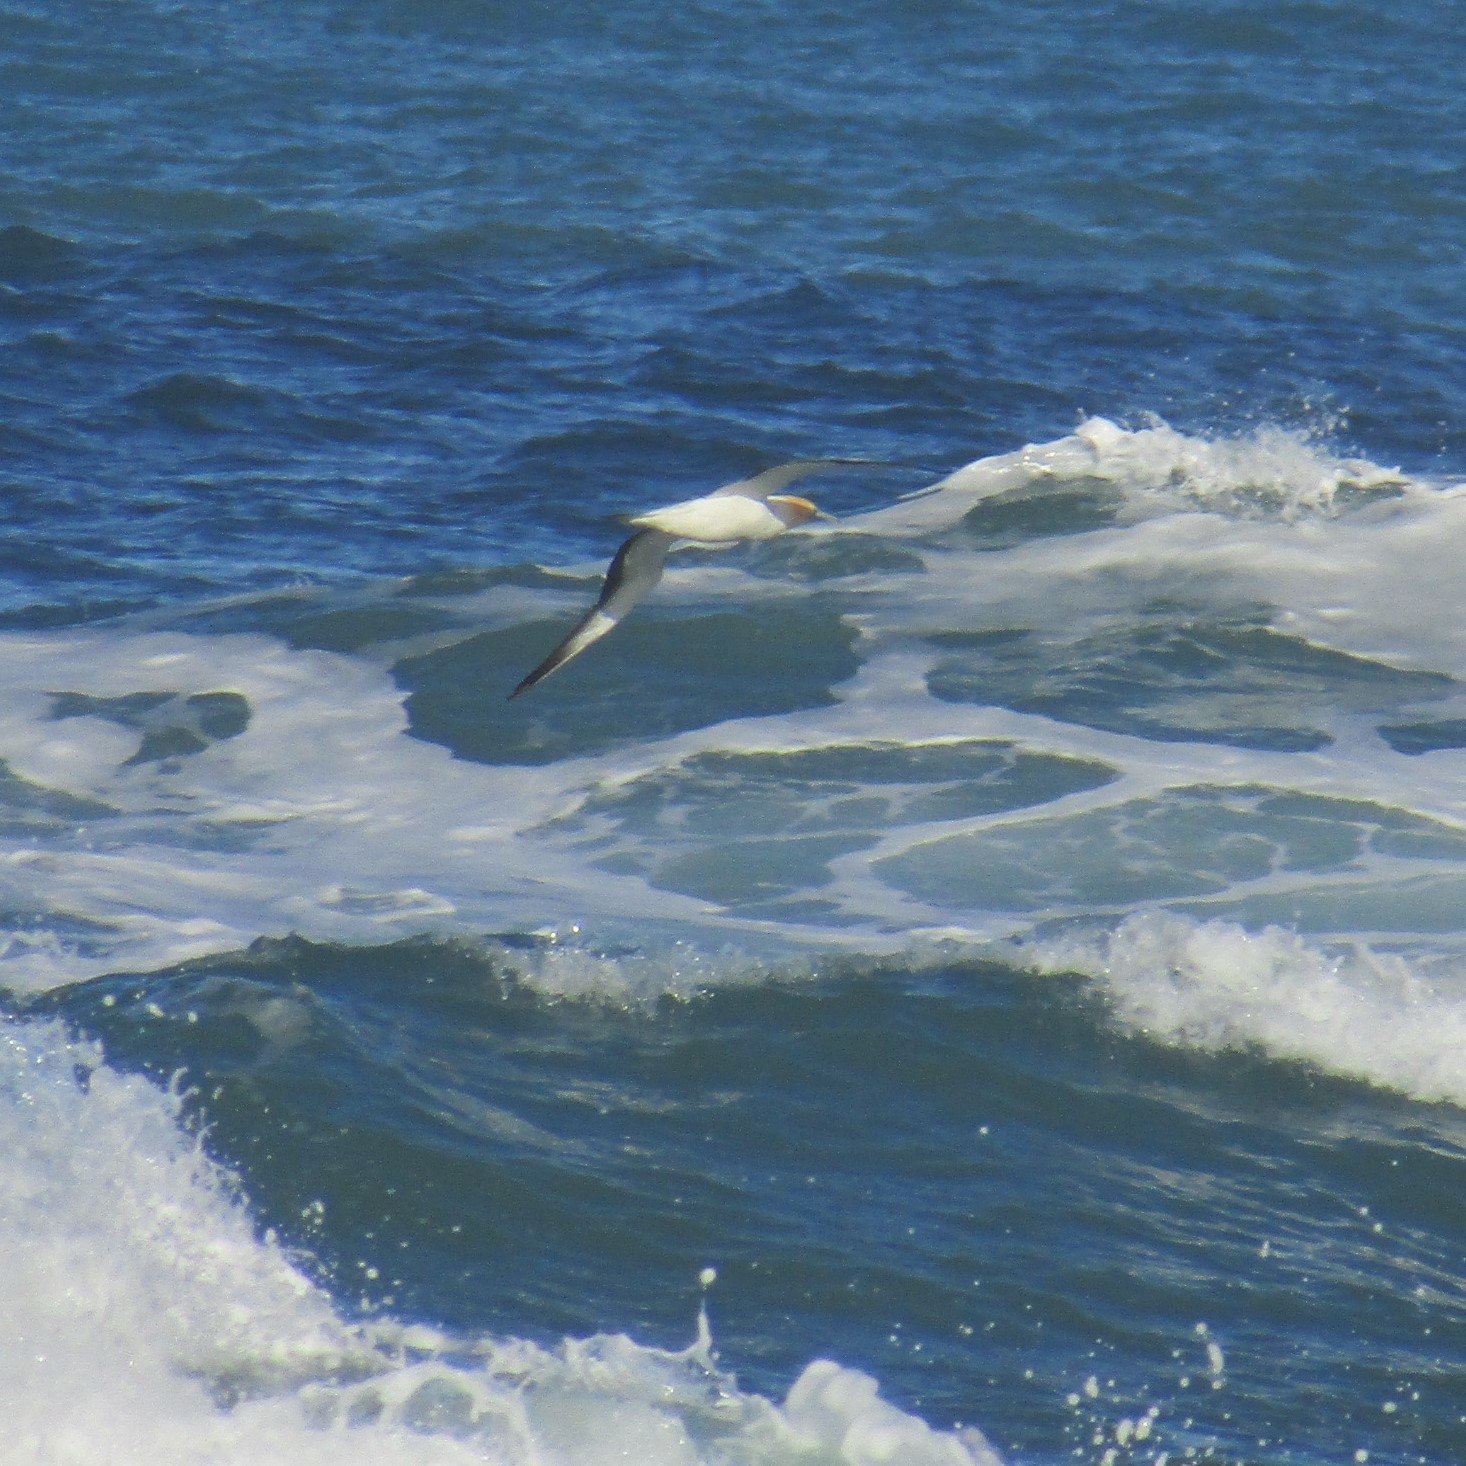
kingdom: Animalia
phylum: Chordata
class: Aves
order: Suliformes
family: Sulidae
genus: Morus
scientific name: Morus serrator
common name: Australasian gannet
